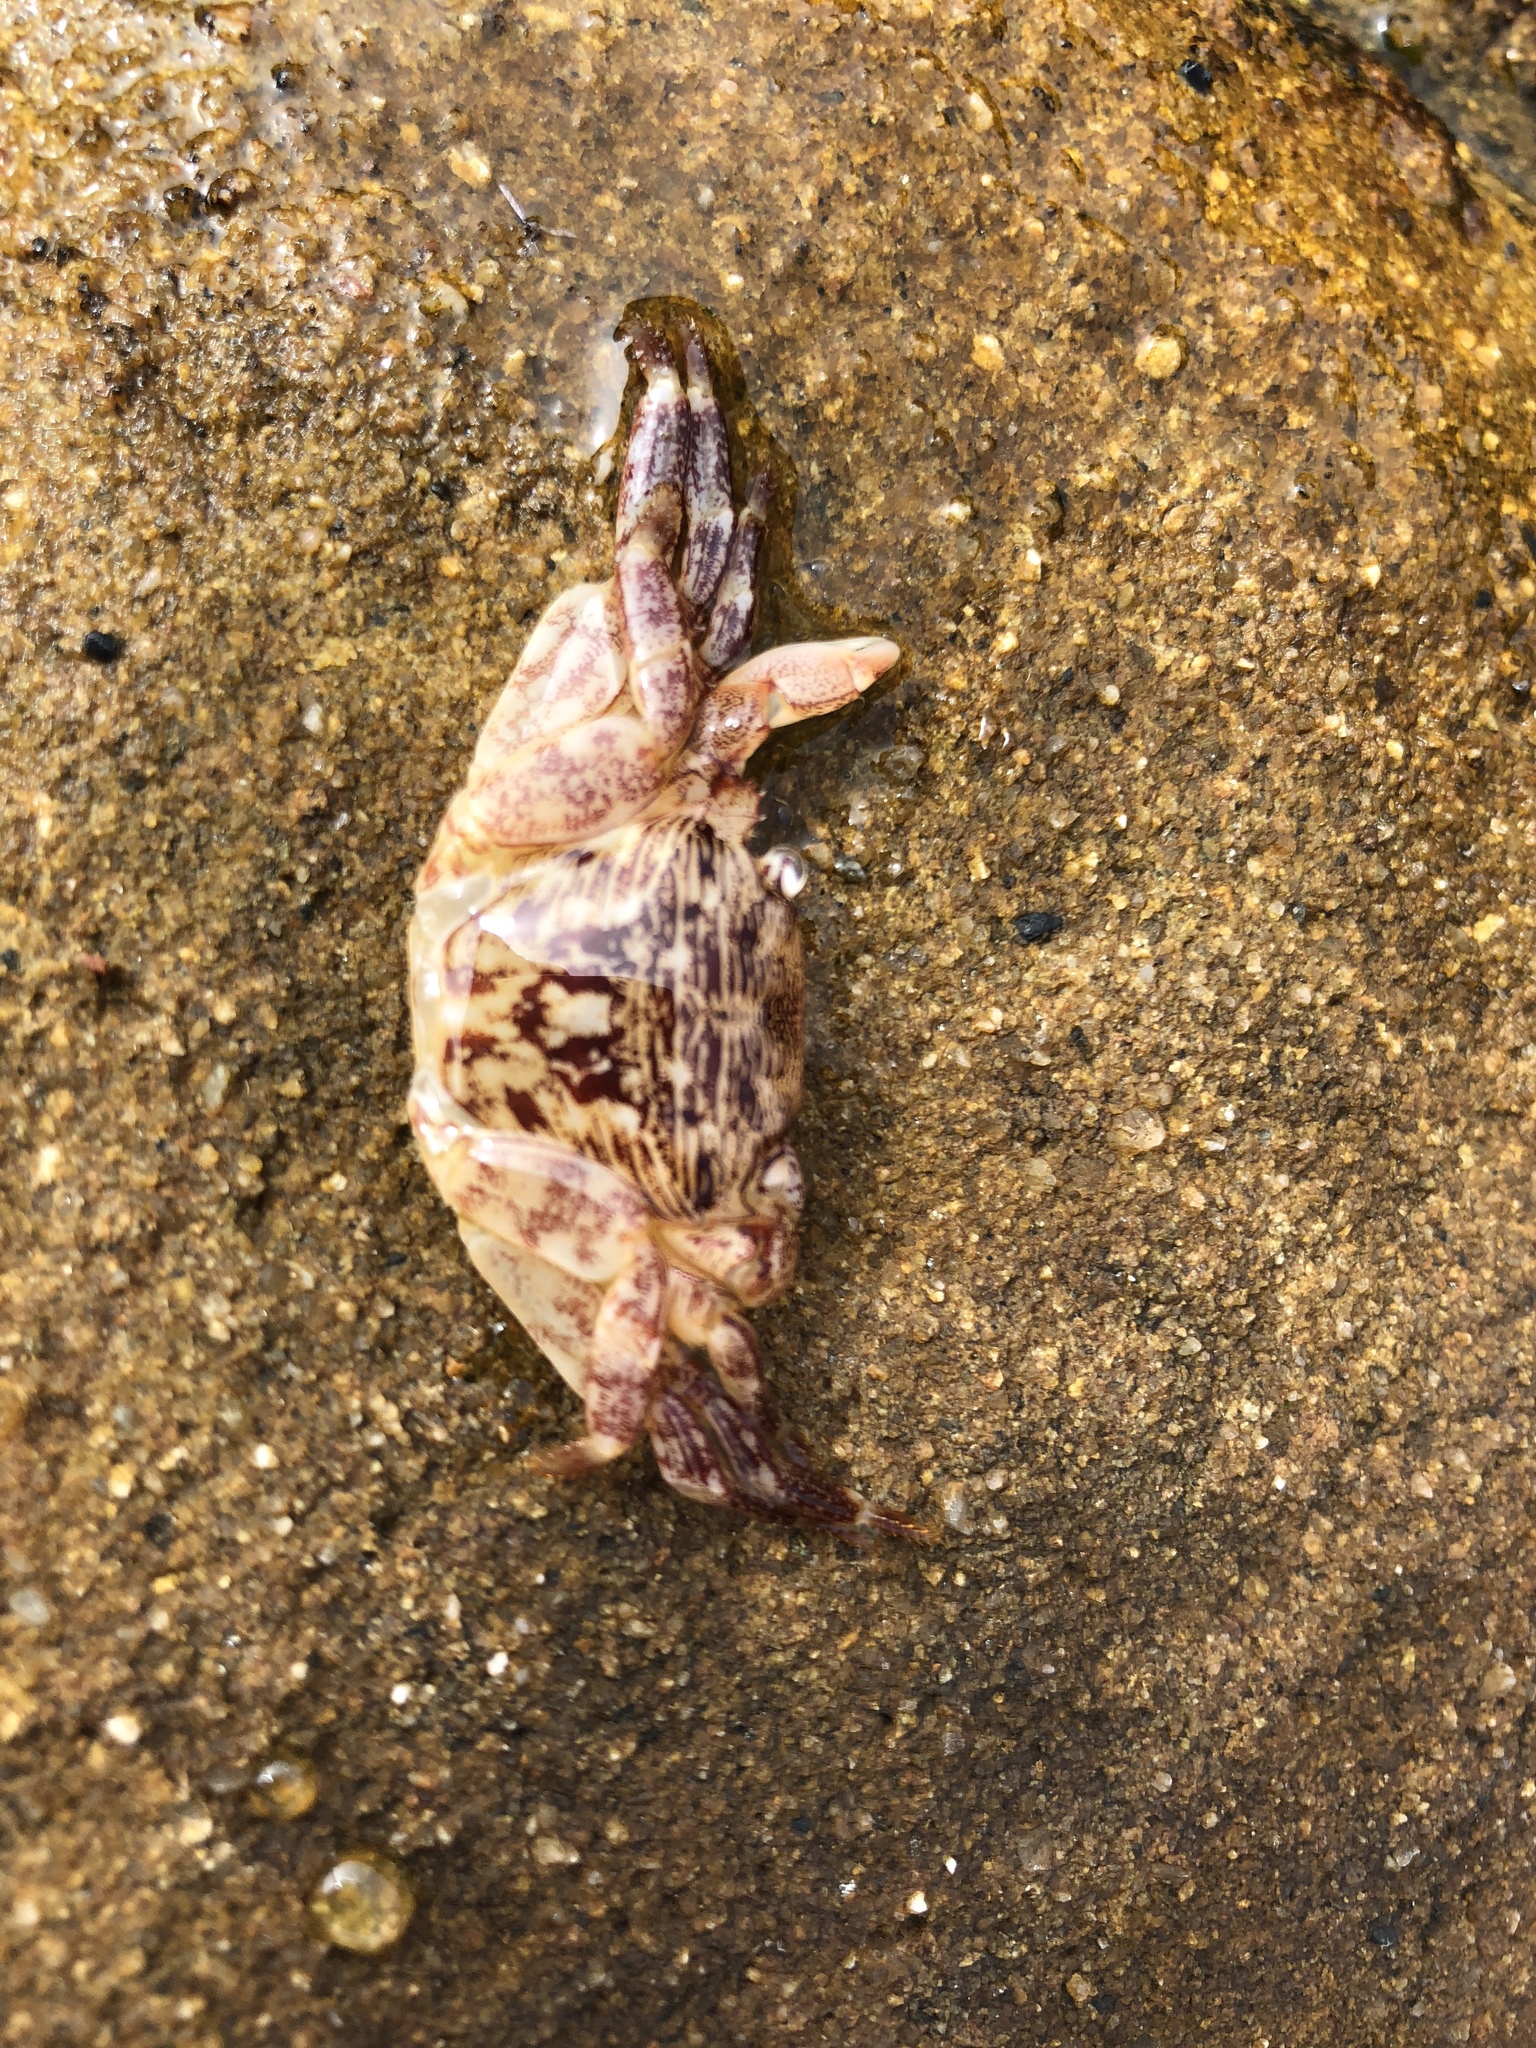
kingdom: Animalia
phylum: Arthropoda
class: Malacostraca
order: Decapoda
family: Grapsidae
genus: Pachygrapsus
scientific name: Pachygrapsus crassipes
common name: Striped shore crab
